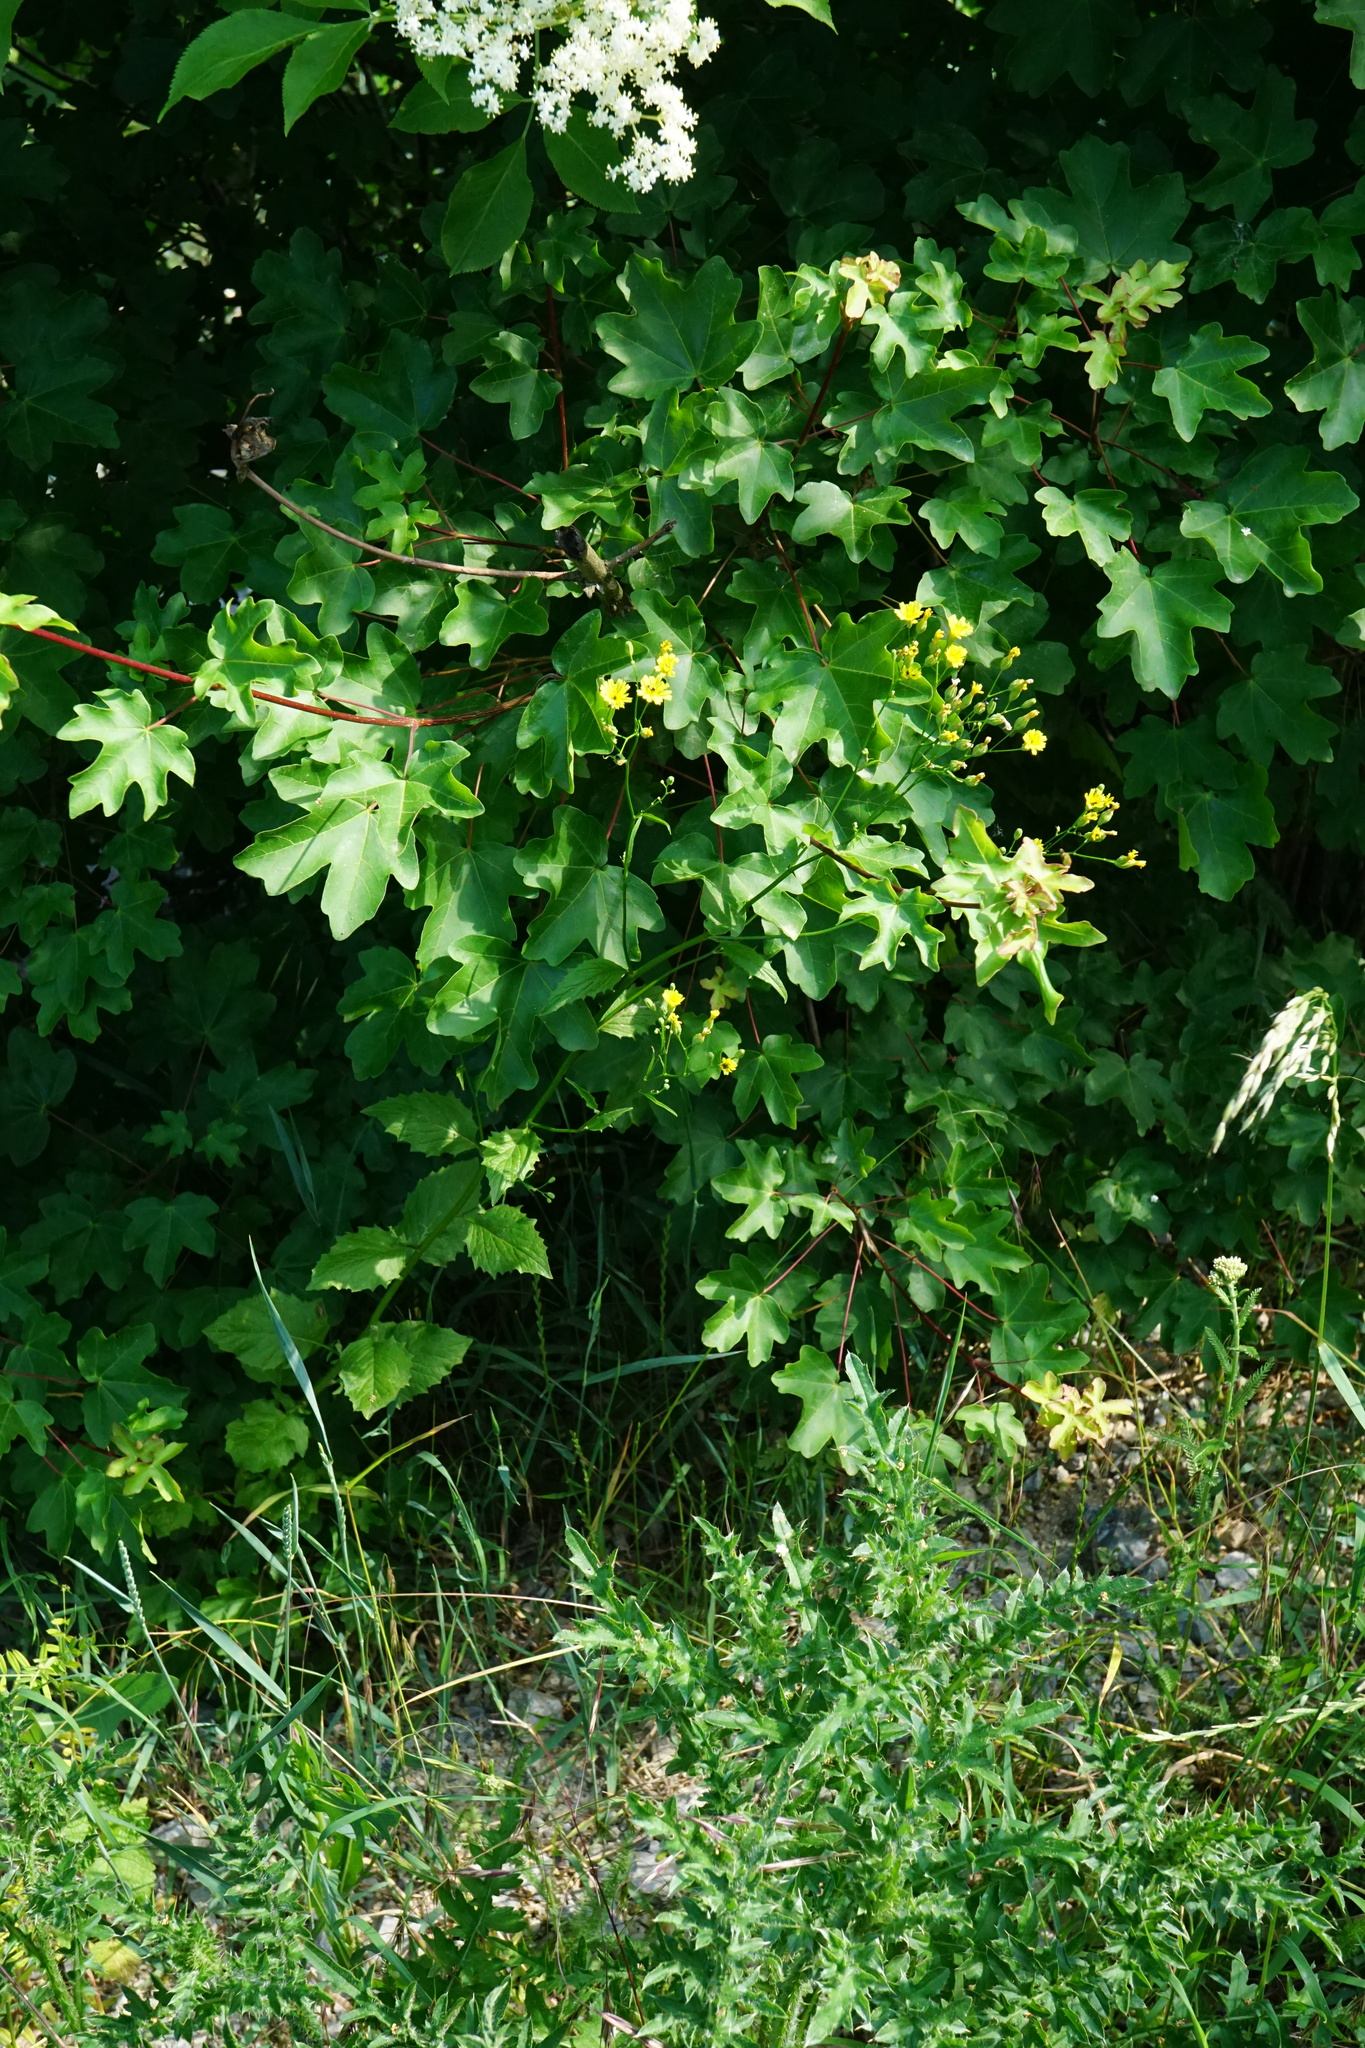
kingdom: Plantae
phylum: Tracheophyta
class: Magnoliopsida
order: Asterales
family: Asteraceae
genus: Lapsana
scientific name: Lapsana communis
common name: Nipplewort
